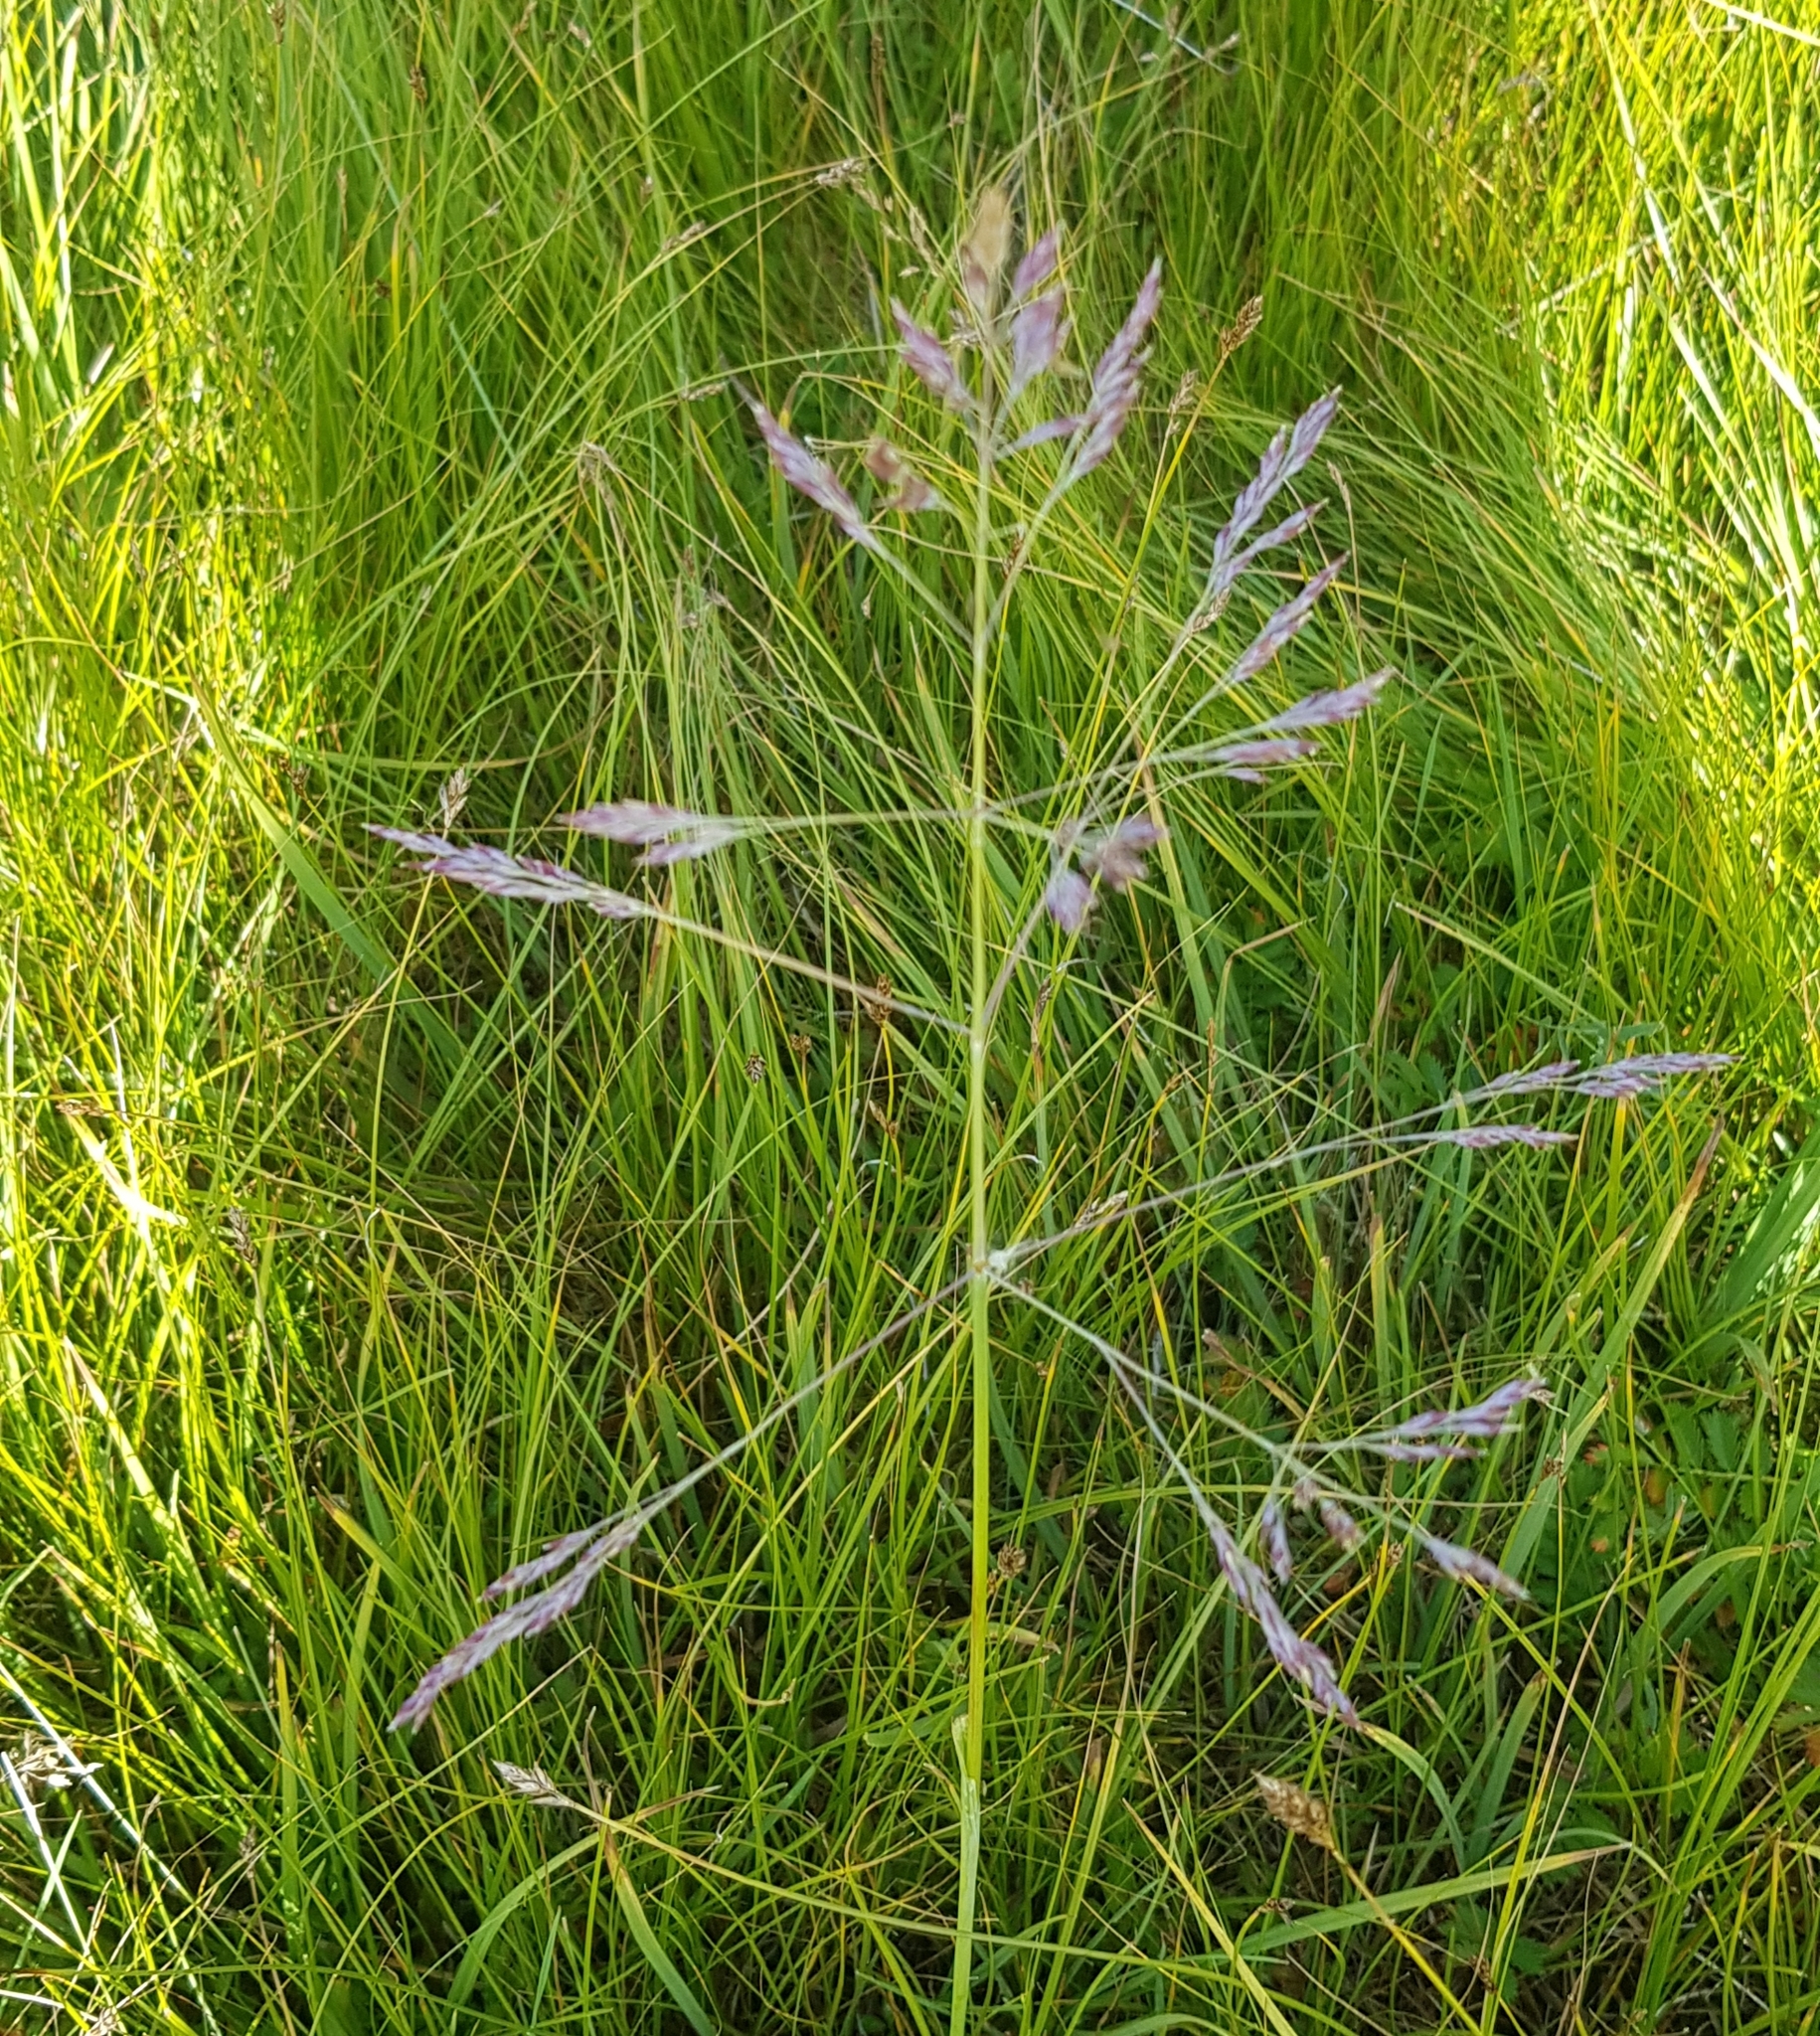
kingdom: Plantae
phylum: Tracheophyta
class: Liliopsida
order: Poales
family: Poaceae
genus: Poa
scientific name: Poa subfastigiata
